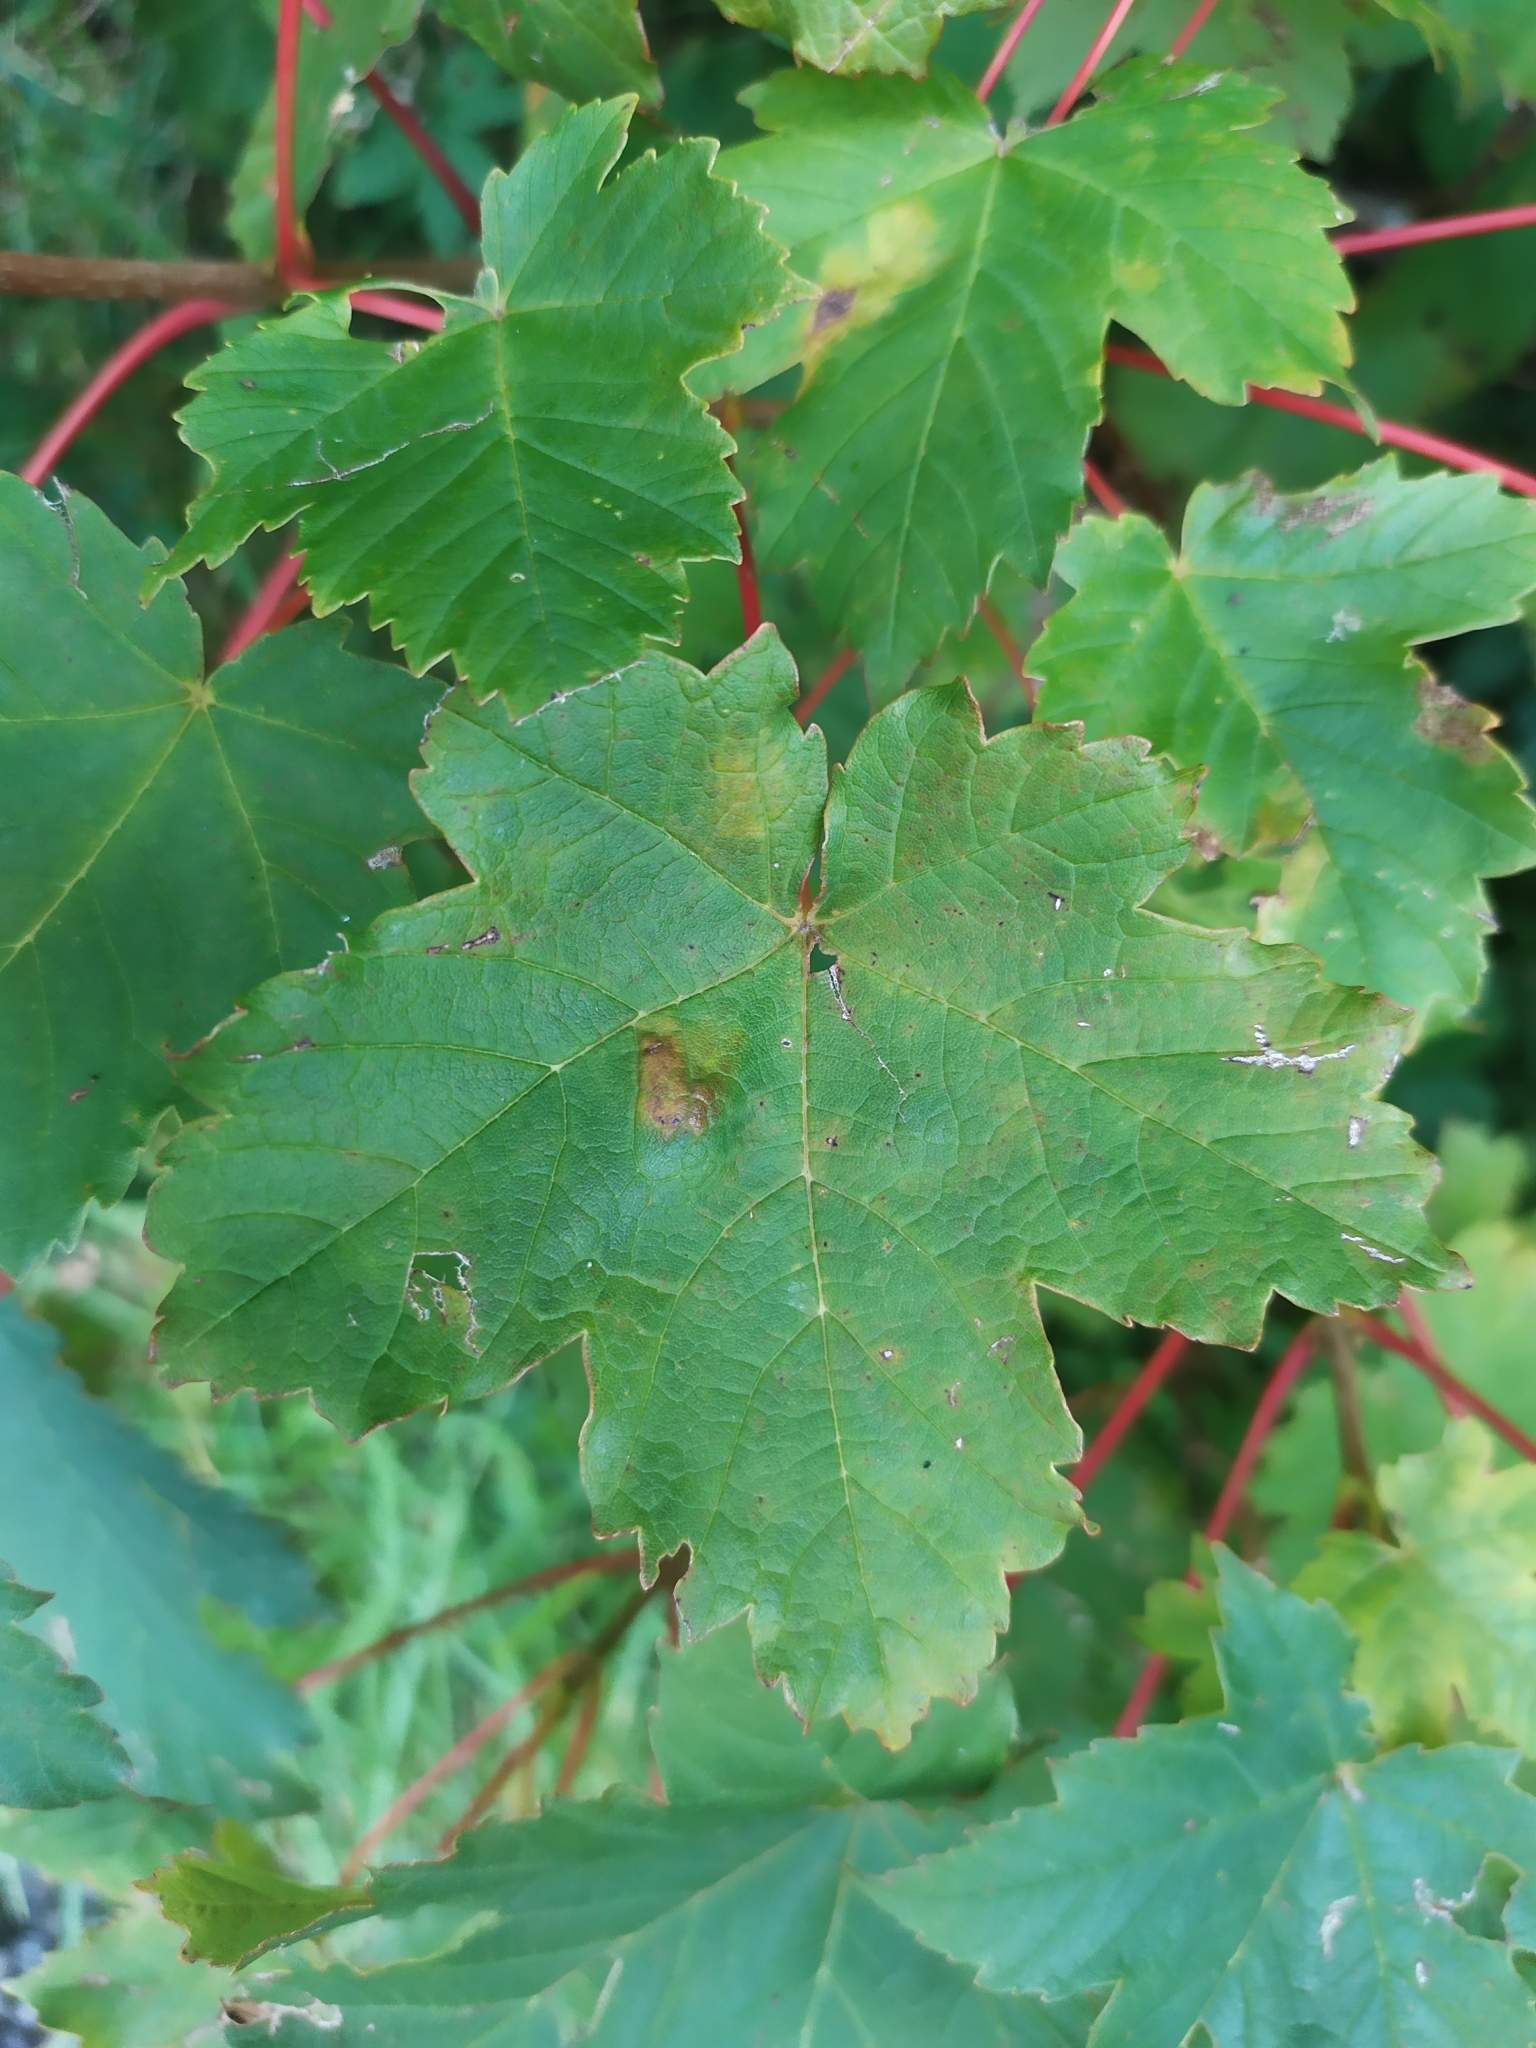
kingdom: Animalia
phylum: Arthropoda
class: Arachnida
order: Trombidiformes
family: Eriophyidae
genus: Aceria
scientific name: Aceria pseudoplatani
